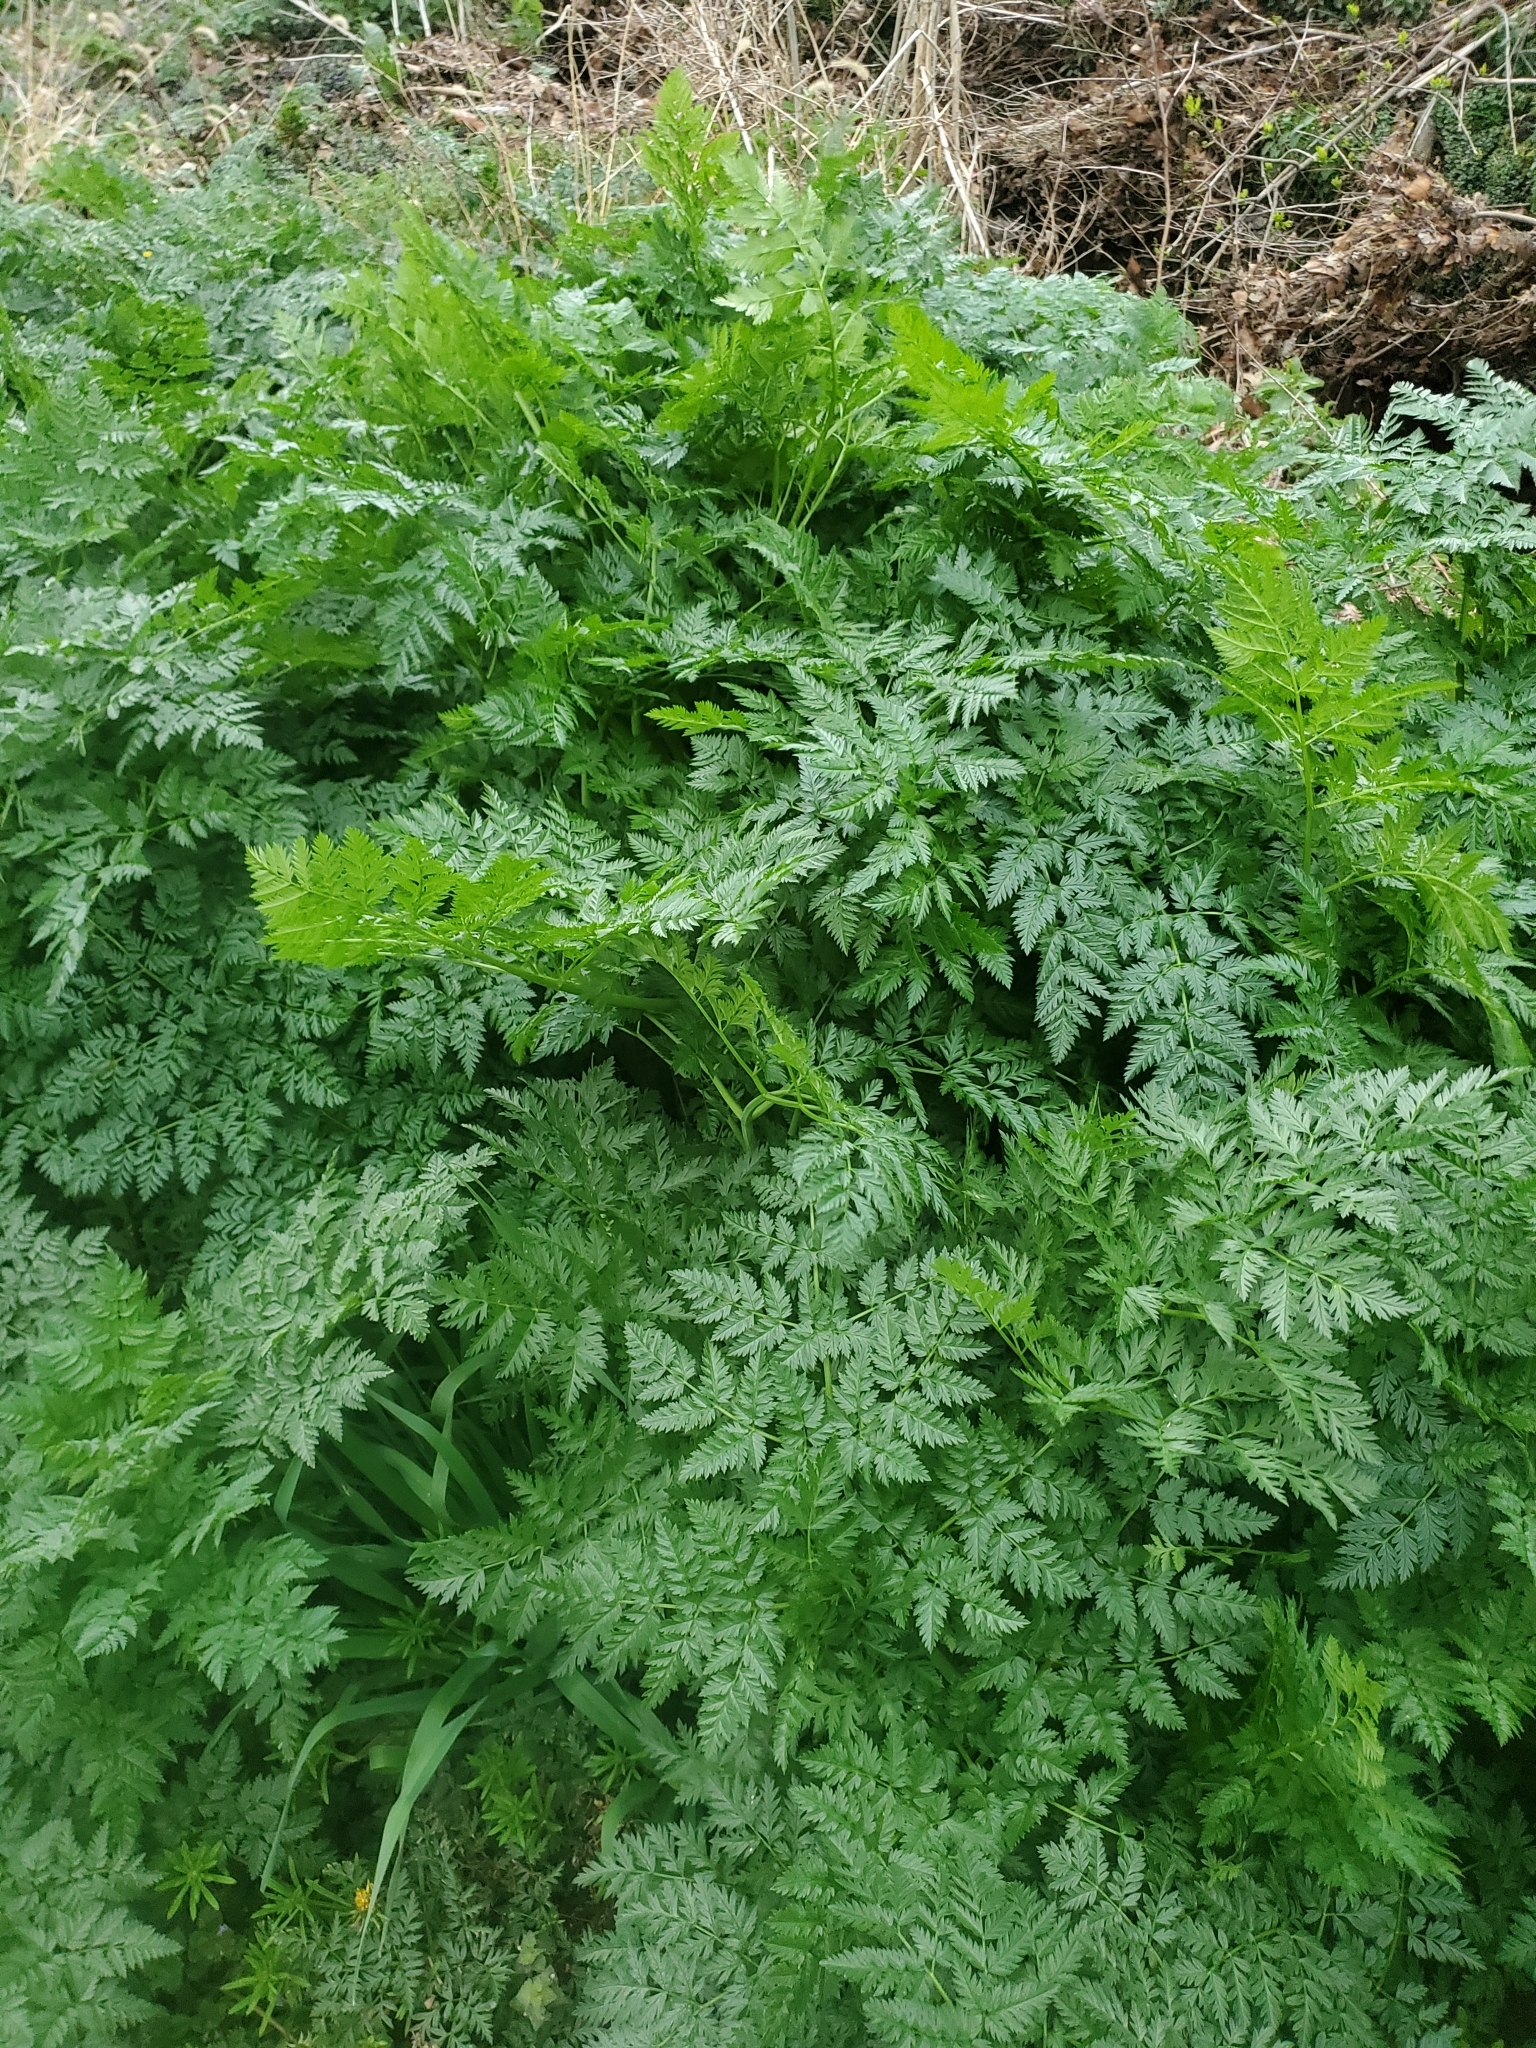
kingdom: Plantae
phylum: Tracheophyta
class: Magnoliopsida
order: Apiales
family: Apiaceae
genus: Conium
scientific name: Conium maculatum
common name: Hemlock
